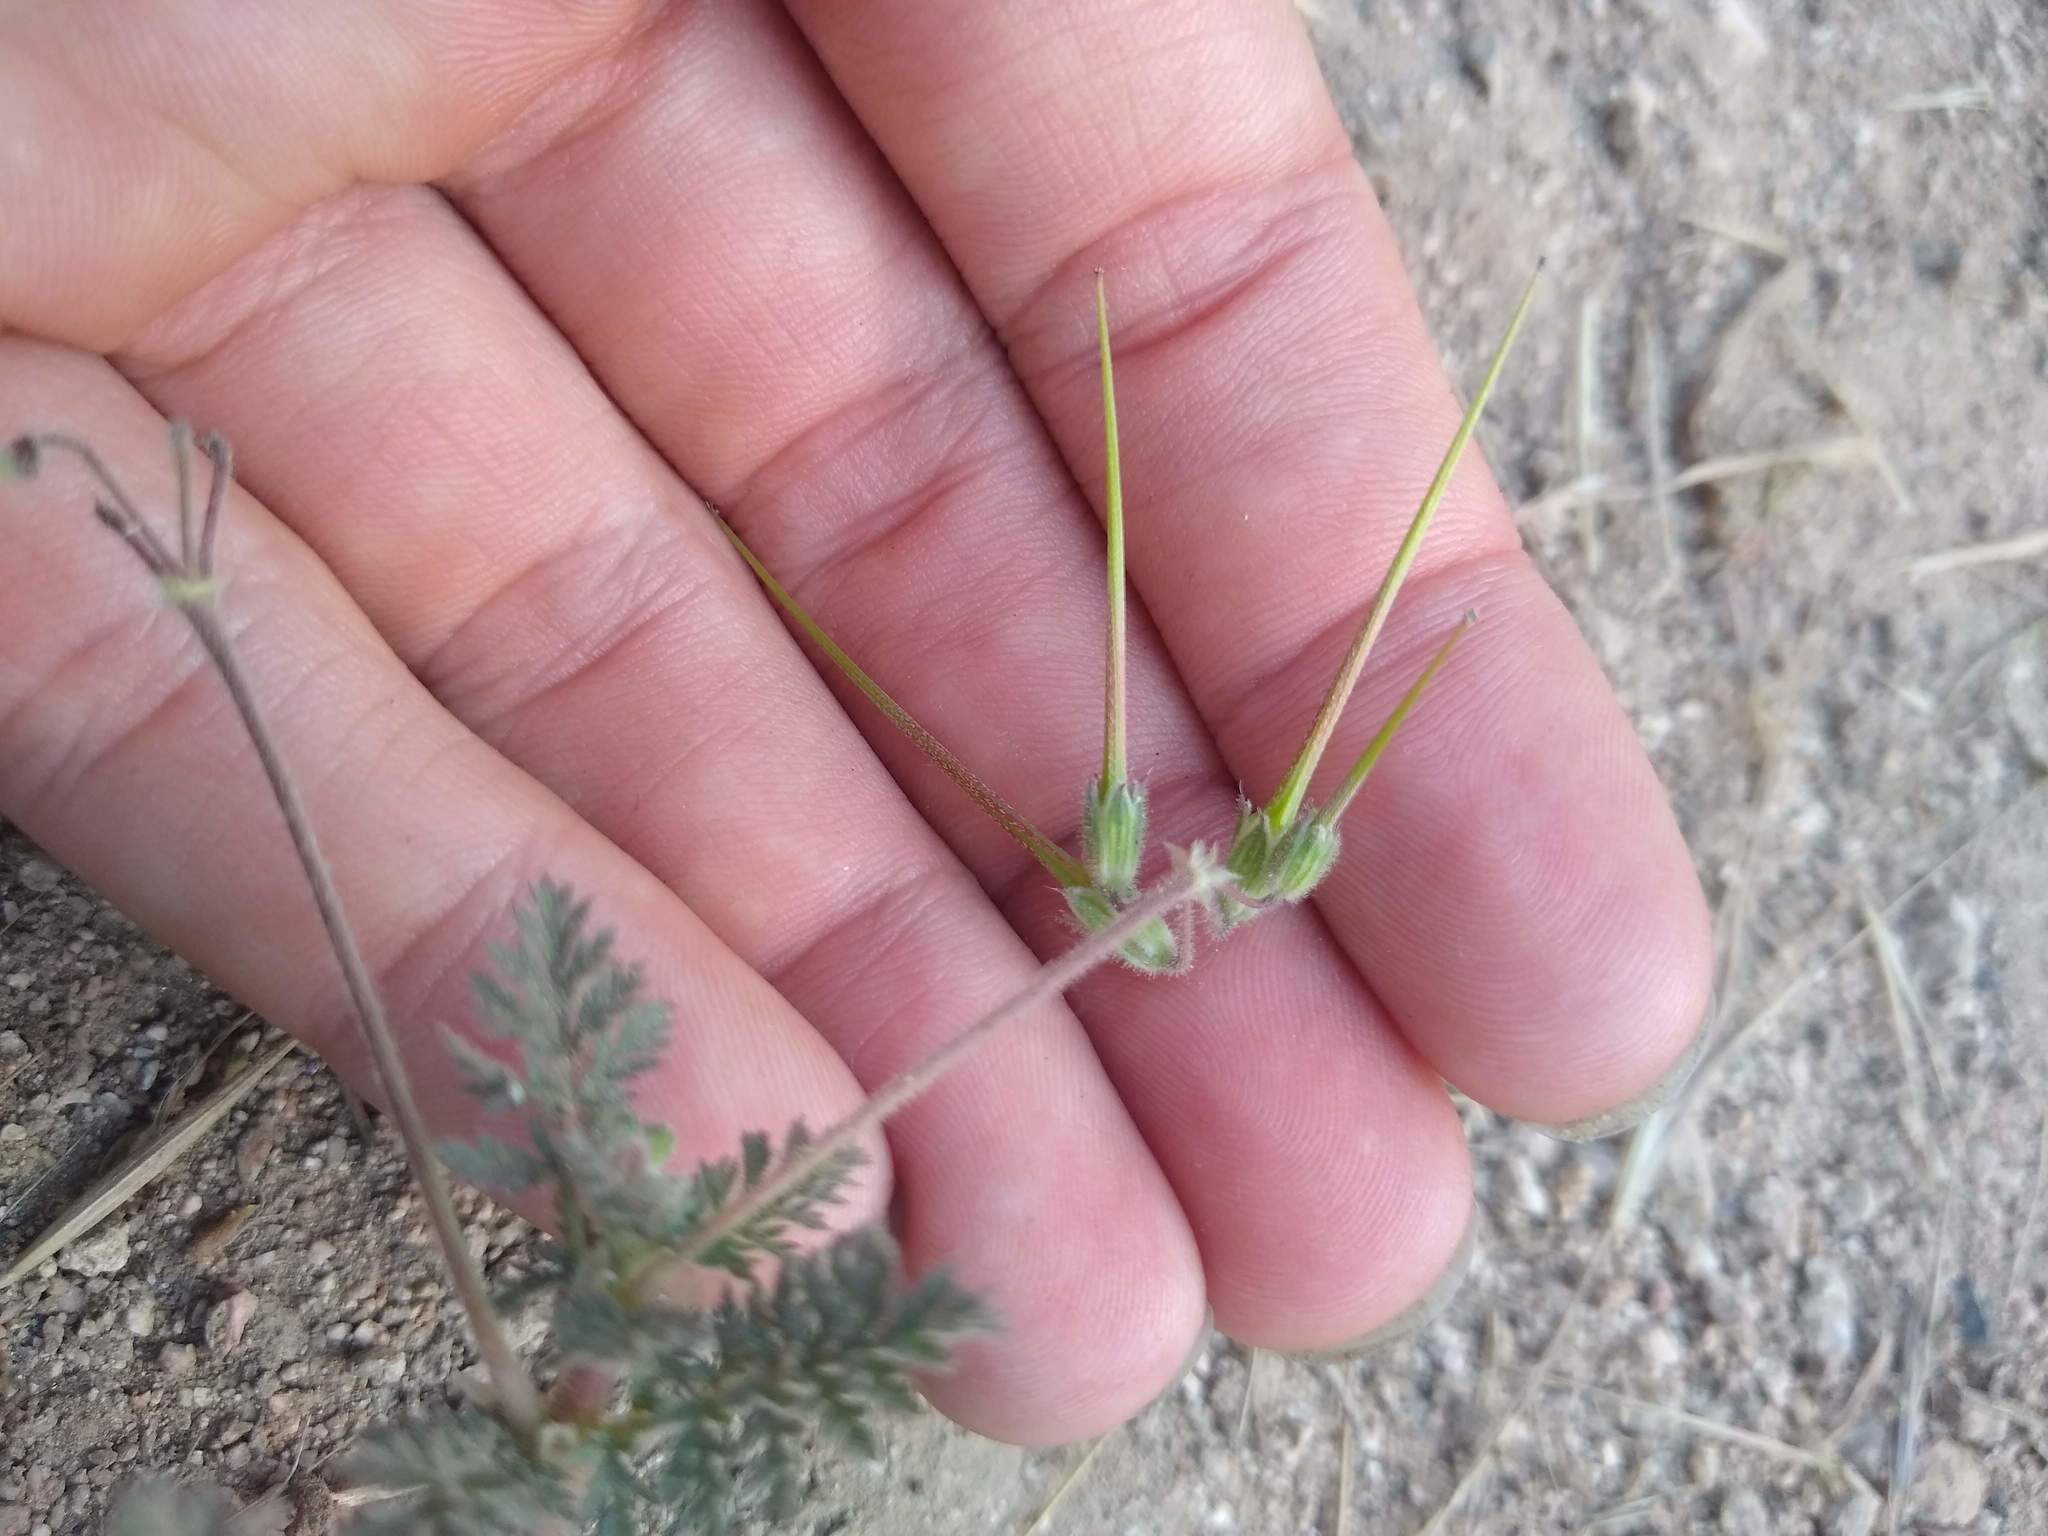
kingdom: Plantae
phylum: Tracheophyta
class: Magnoliopsida
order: Geraniales
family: Geraniaceae
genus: Erodium
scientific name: Erodium cicutarium
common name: Common stork's-bill
